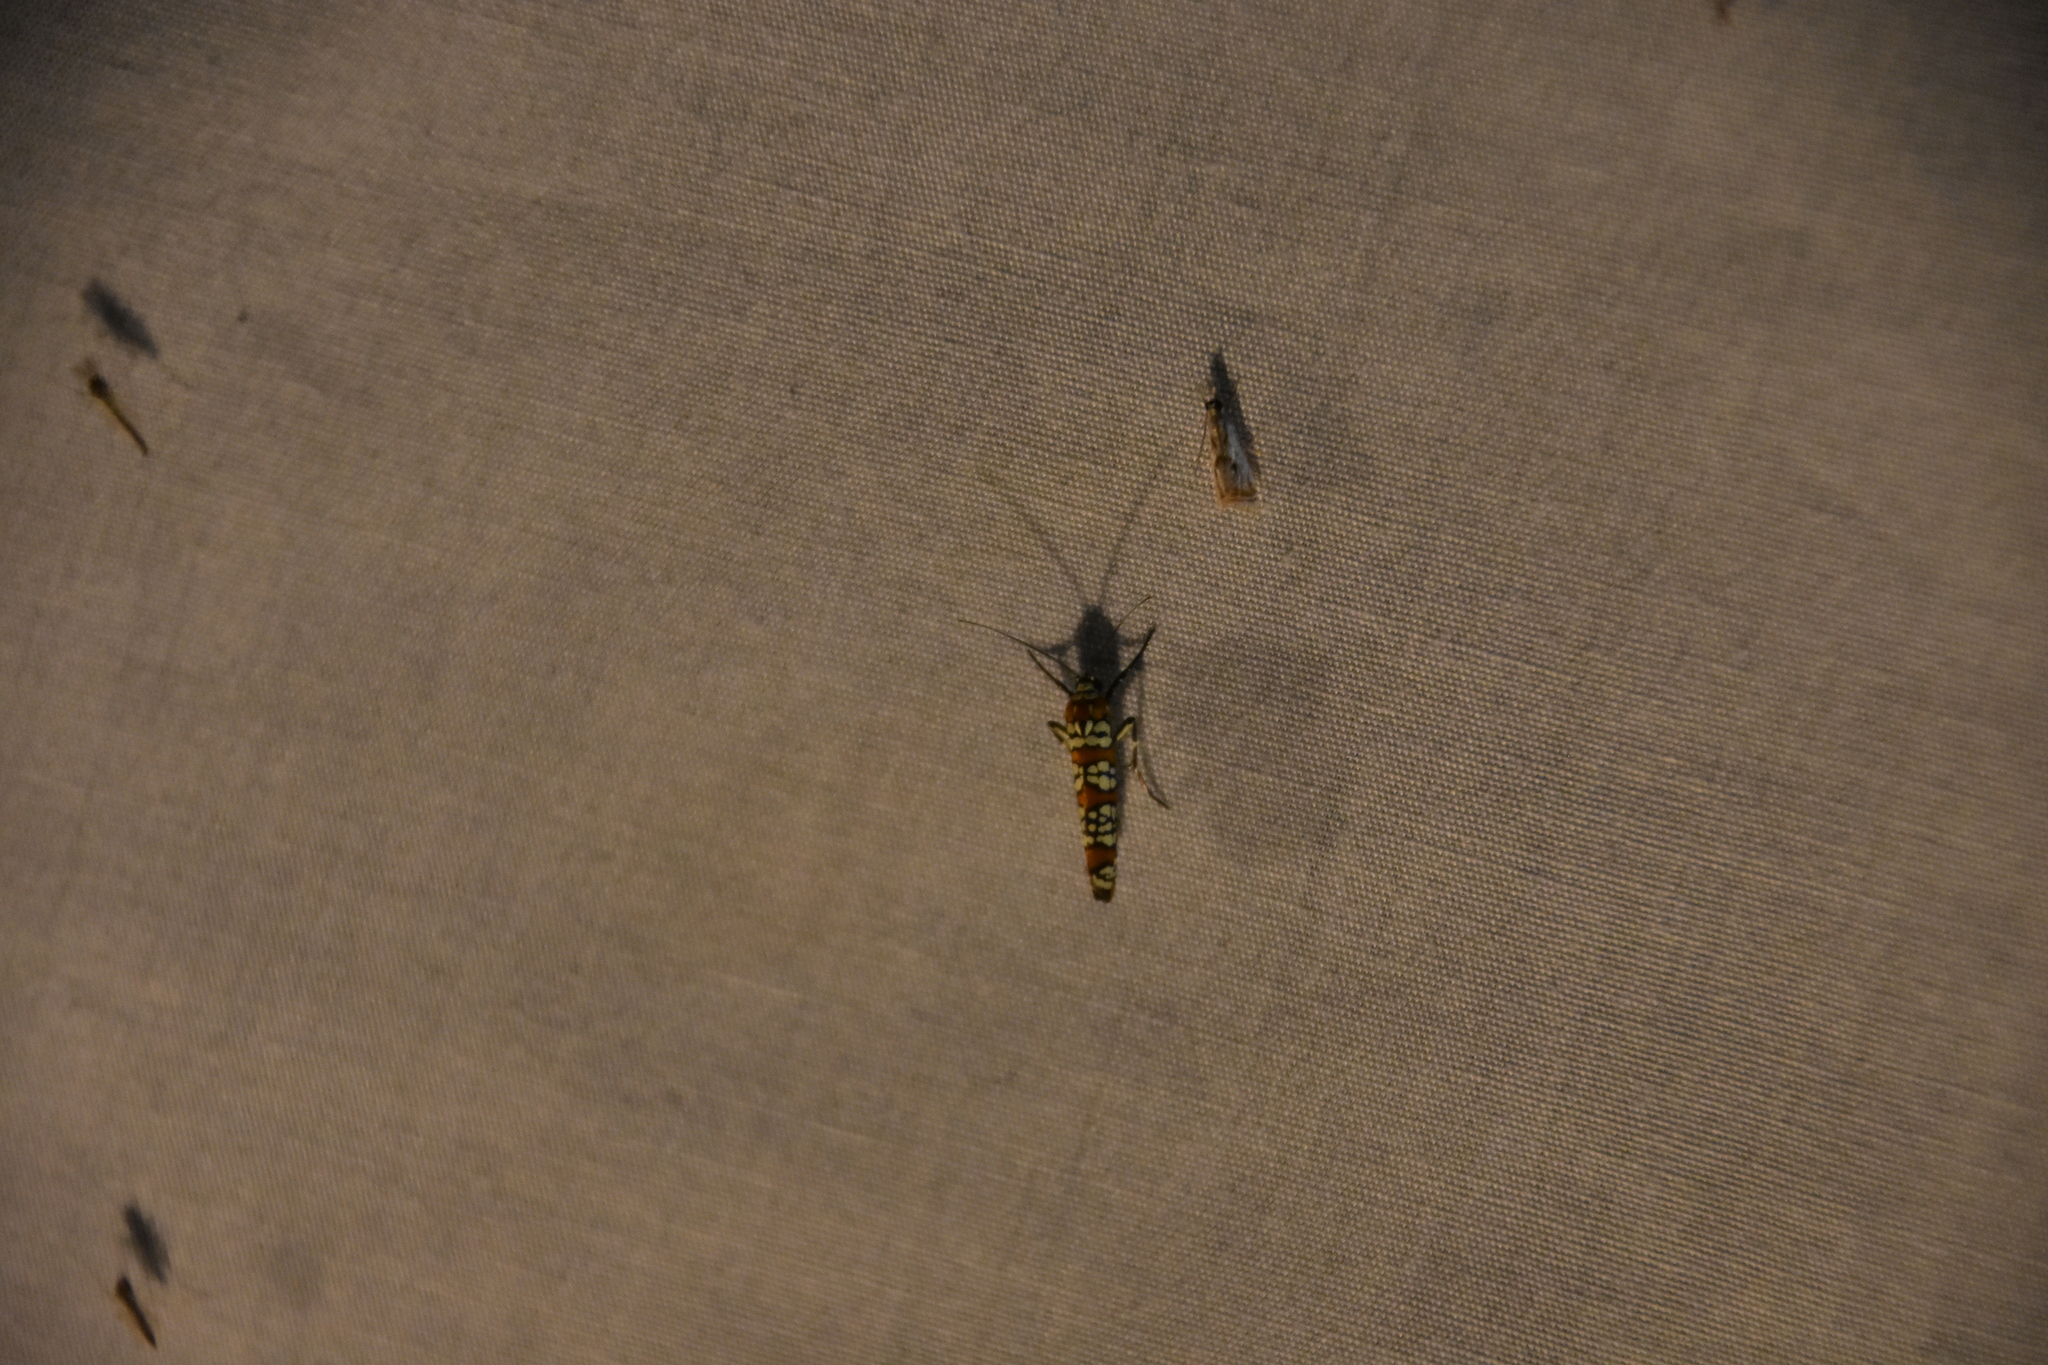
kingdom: Animalia
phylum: Arthropoda
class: Insecta
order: Lepidoptera
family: Attevidae
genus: Atteva
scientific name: Atteva punctella
